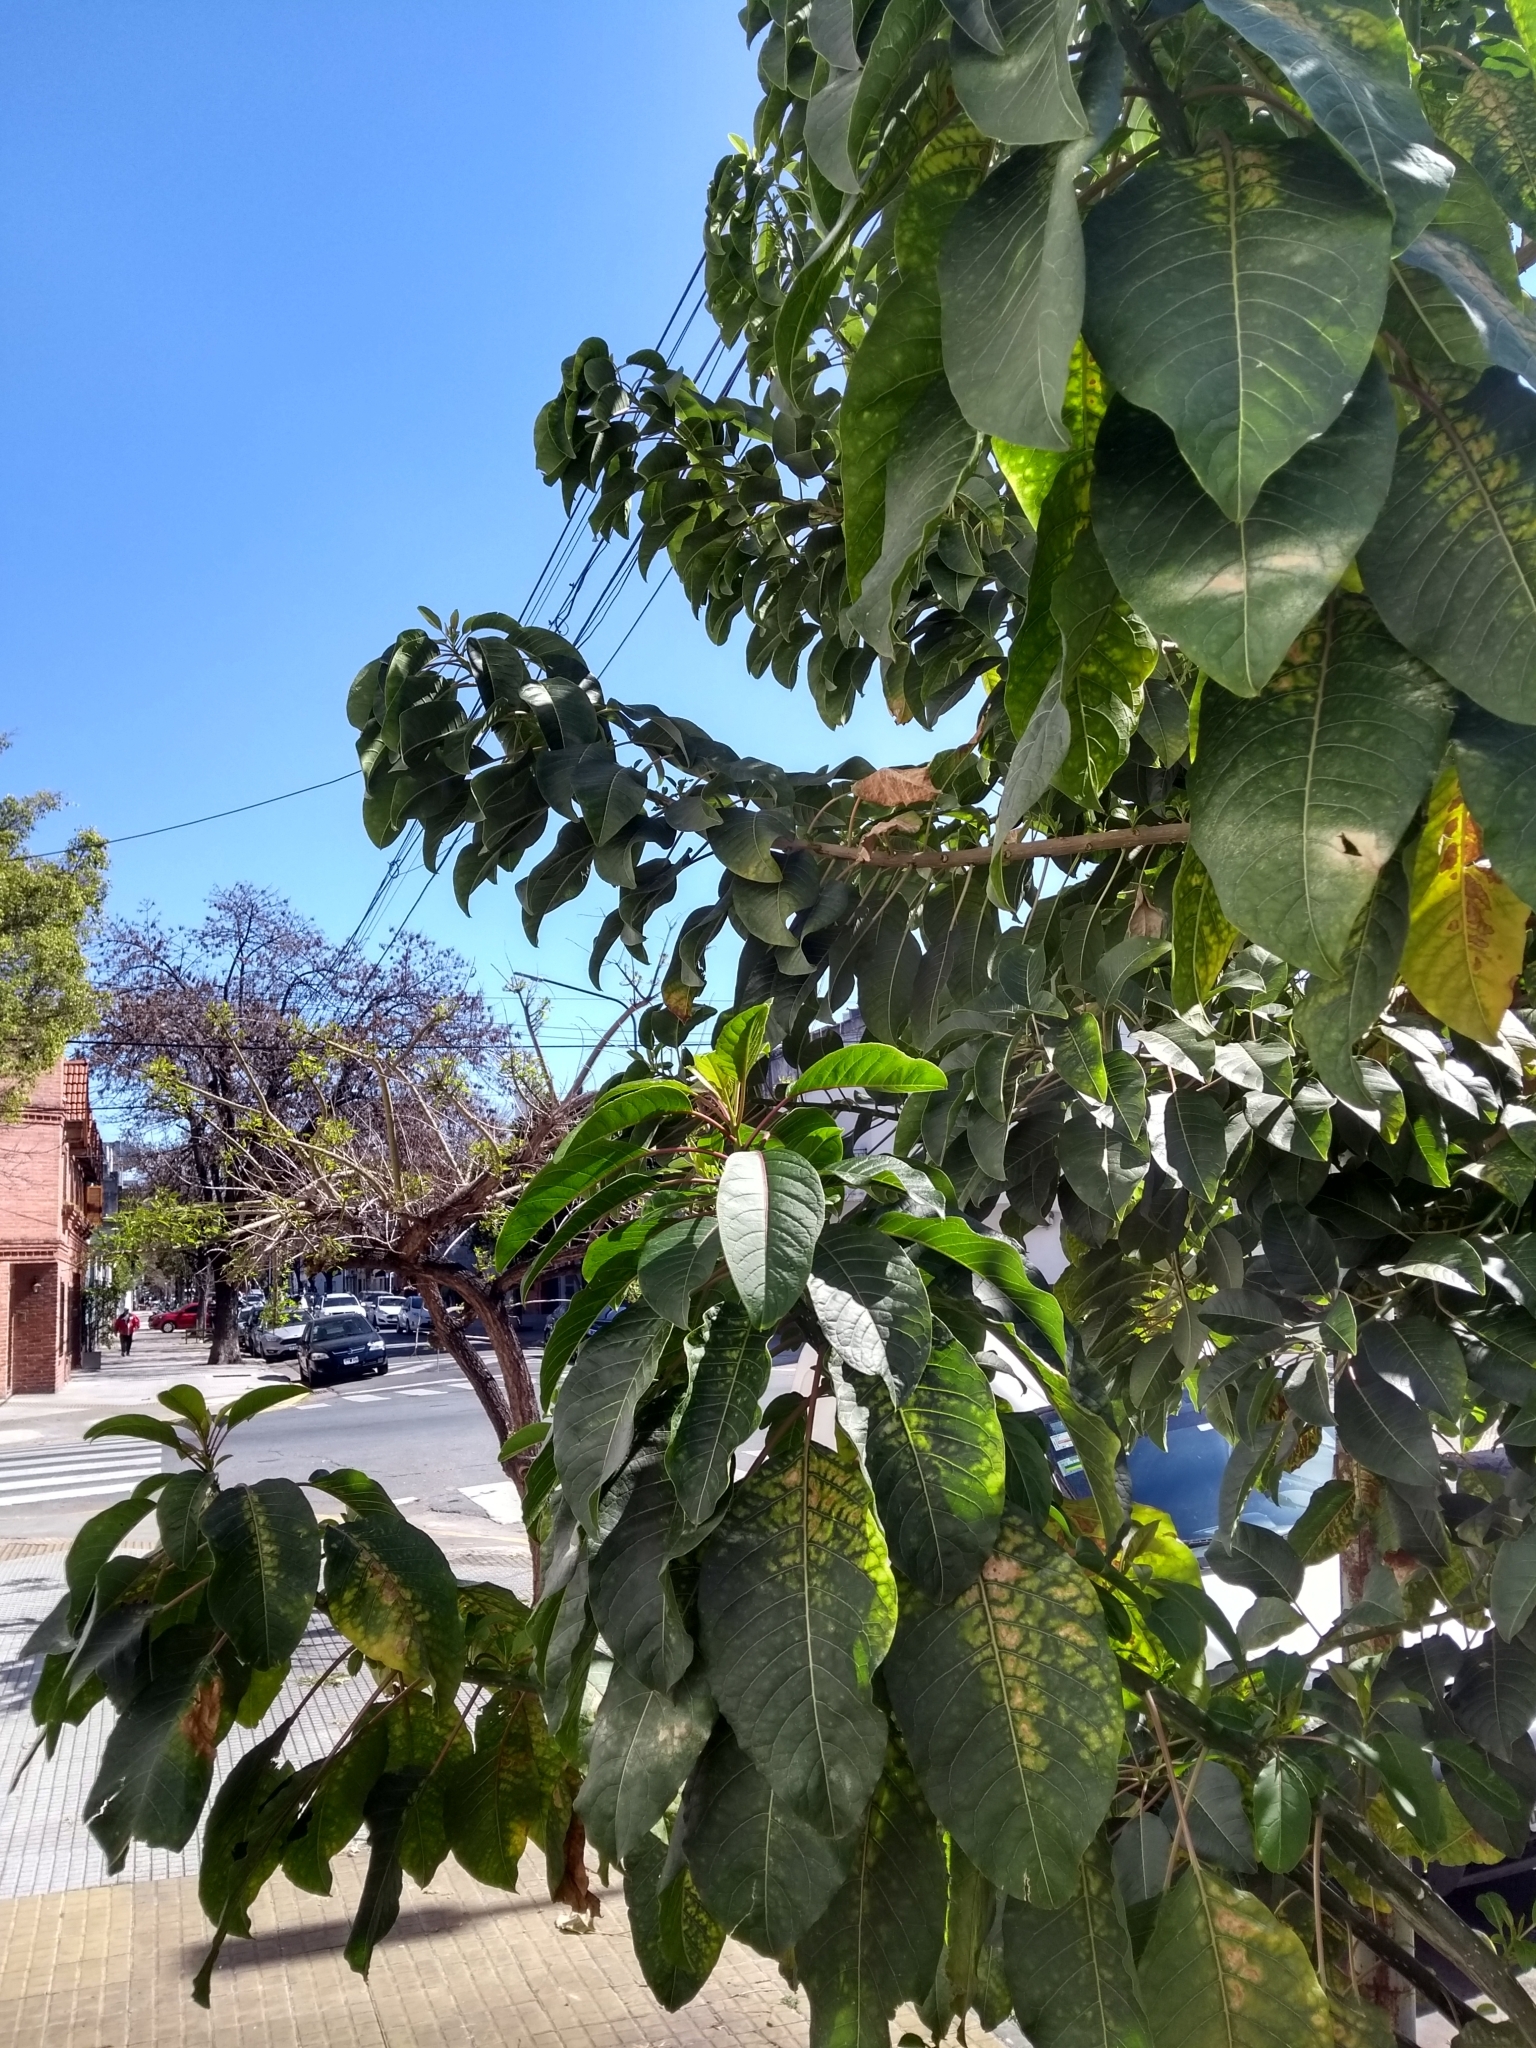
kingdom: Plantae
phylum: Tracheophyta
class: Magnoliopsida
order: Caryophyllales
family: Phytolaccaceae
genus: Phytolacca
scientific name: Phytolacca dioica
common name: Pokeweed
